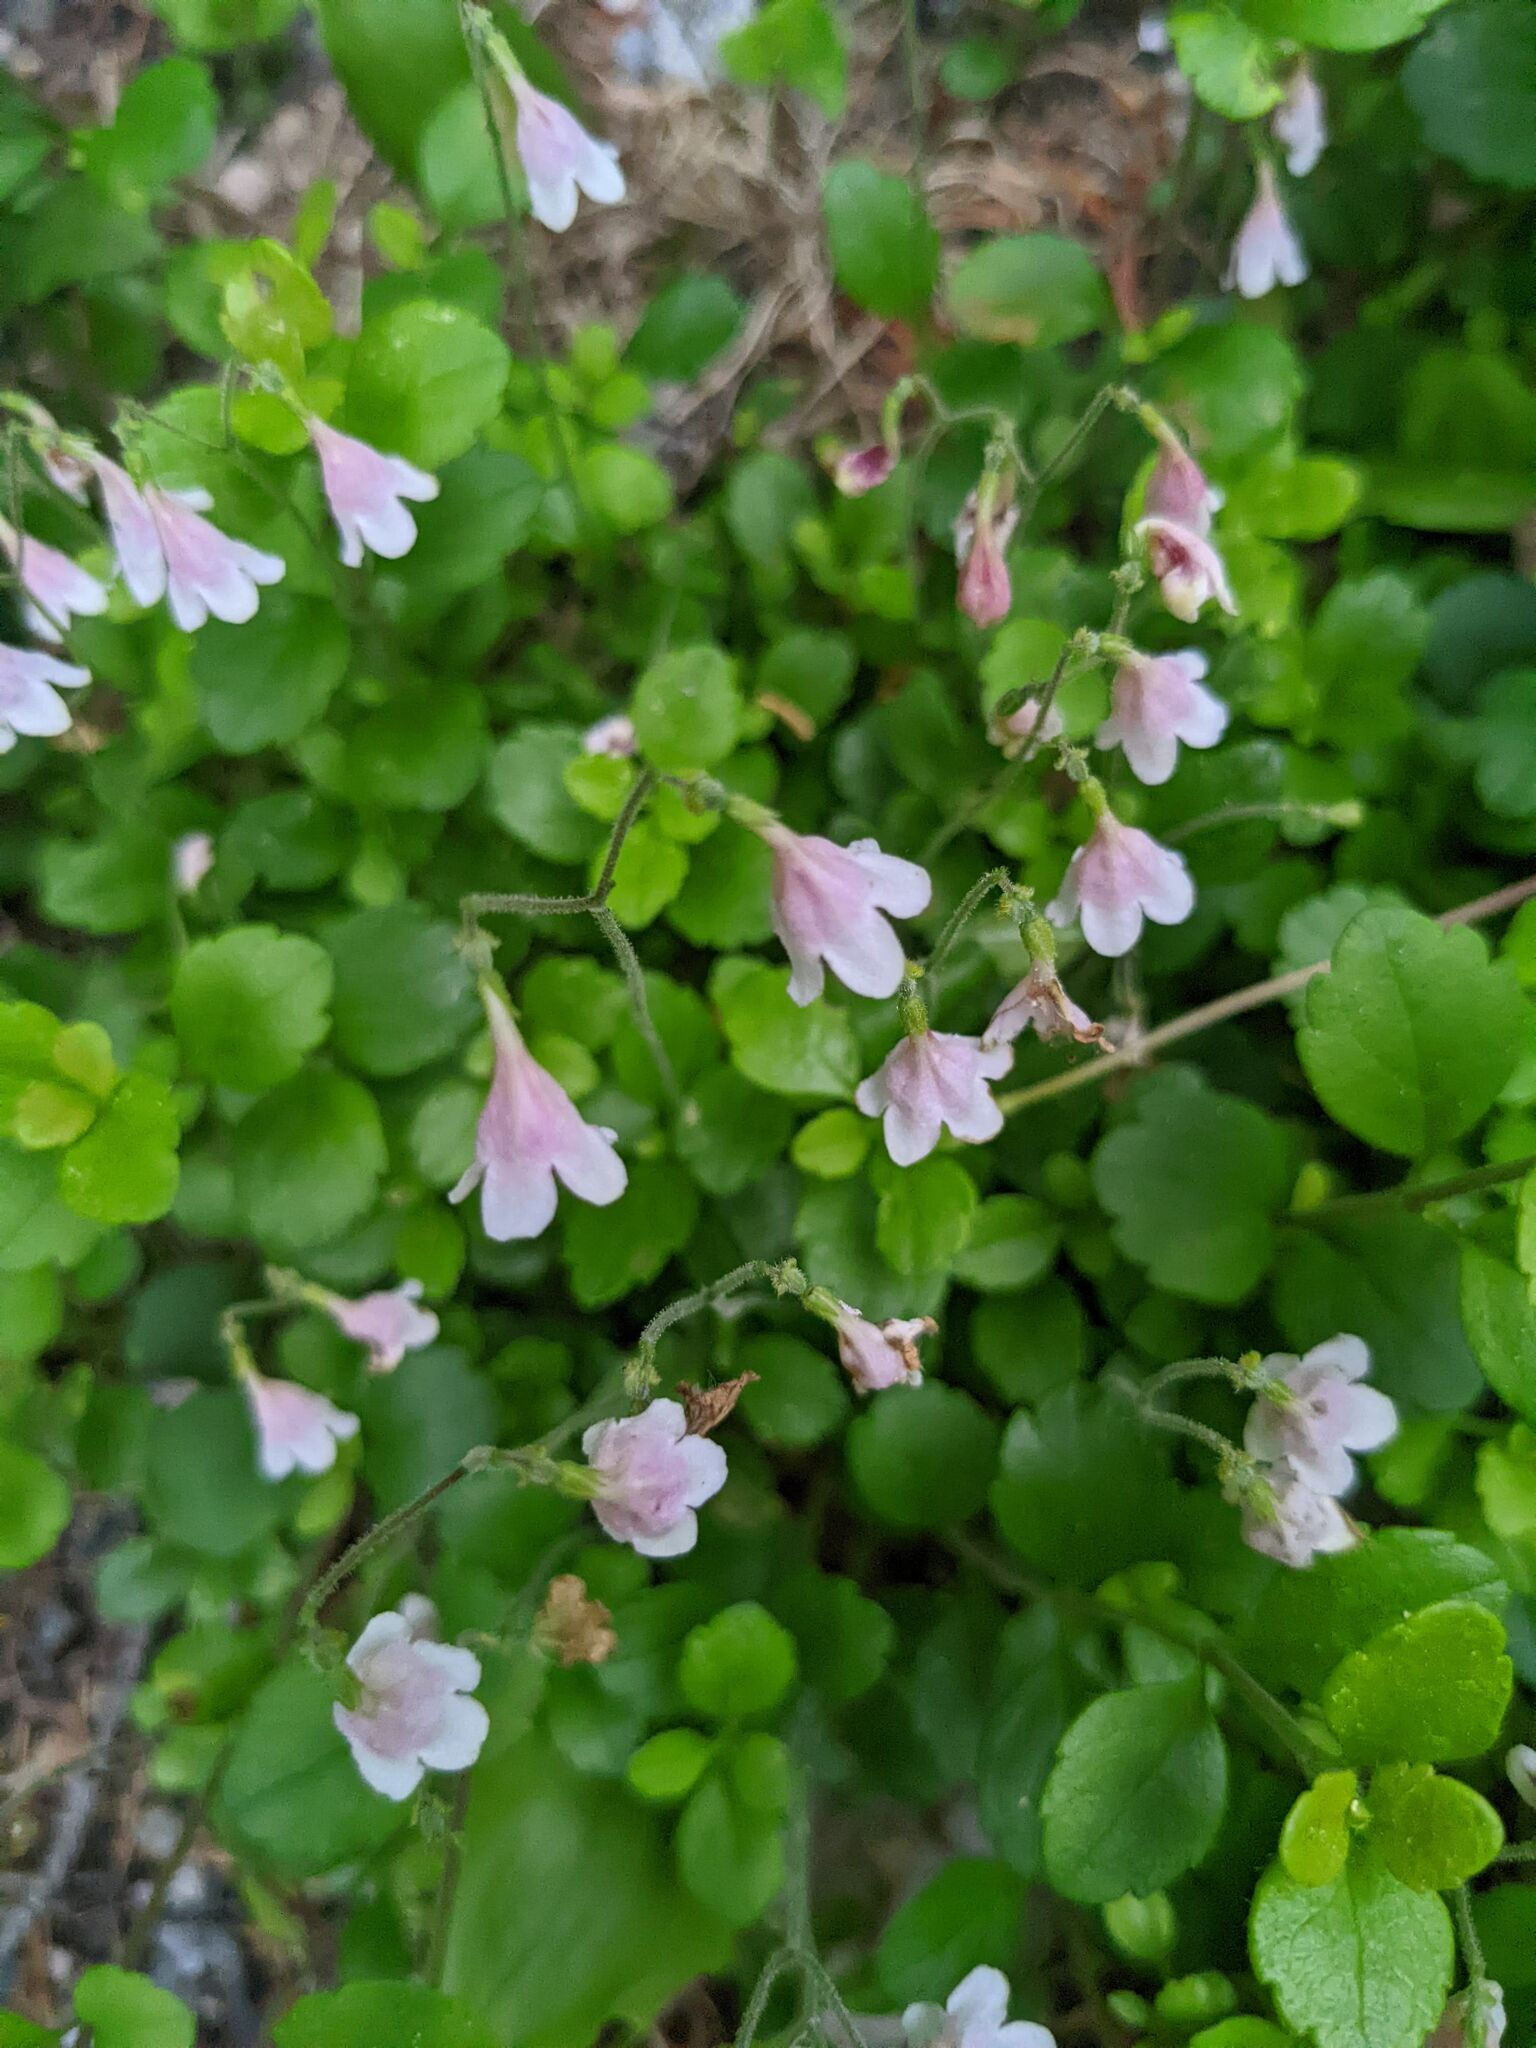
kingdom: Plantae
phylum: Tracheophyta
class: Magnoliopsida
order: Dipsacales
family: Caprifoliaceae
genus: Linnaea
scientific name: Linnaea borealis
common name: Twinflower
